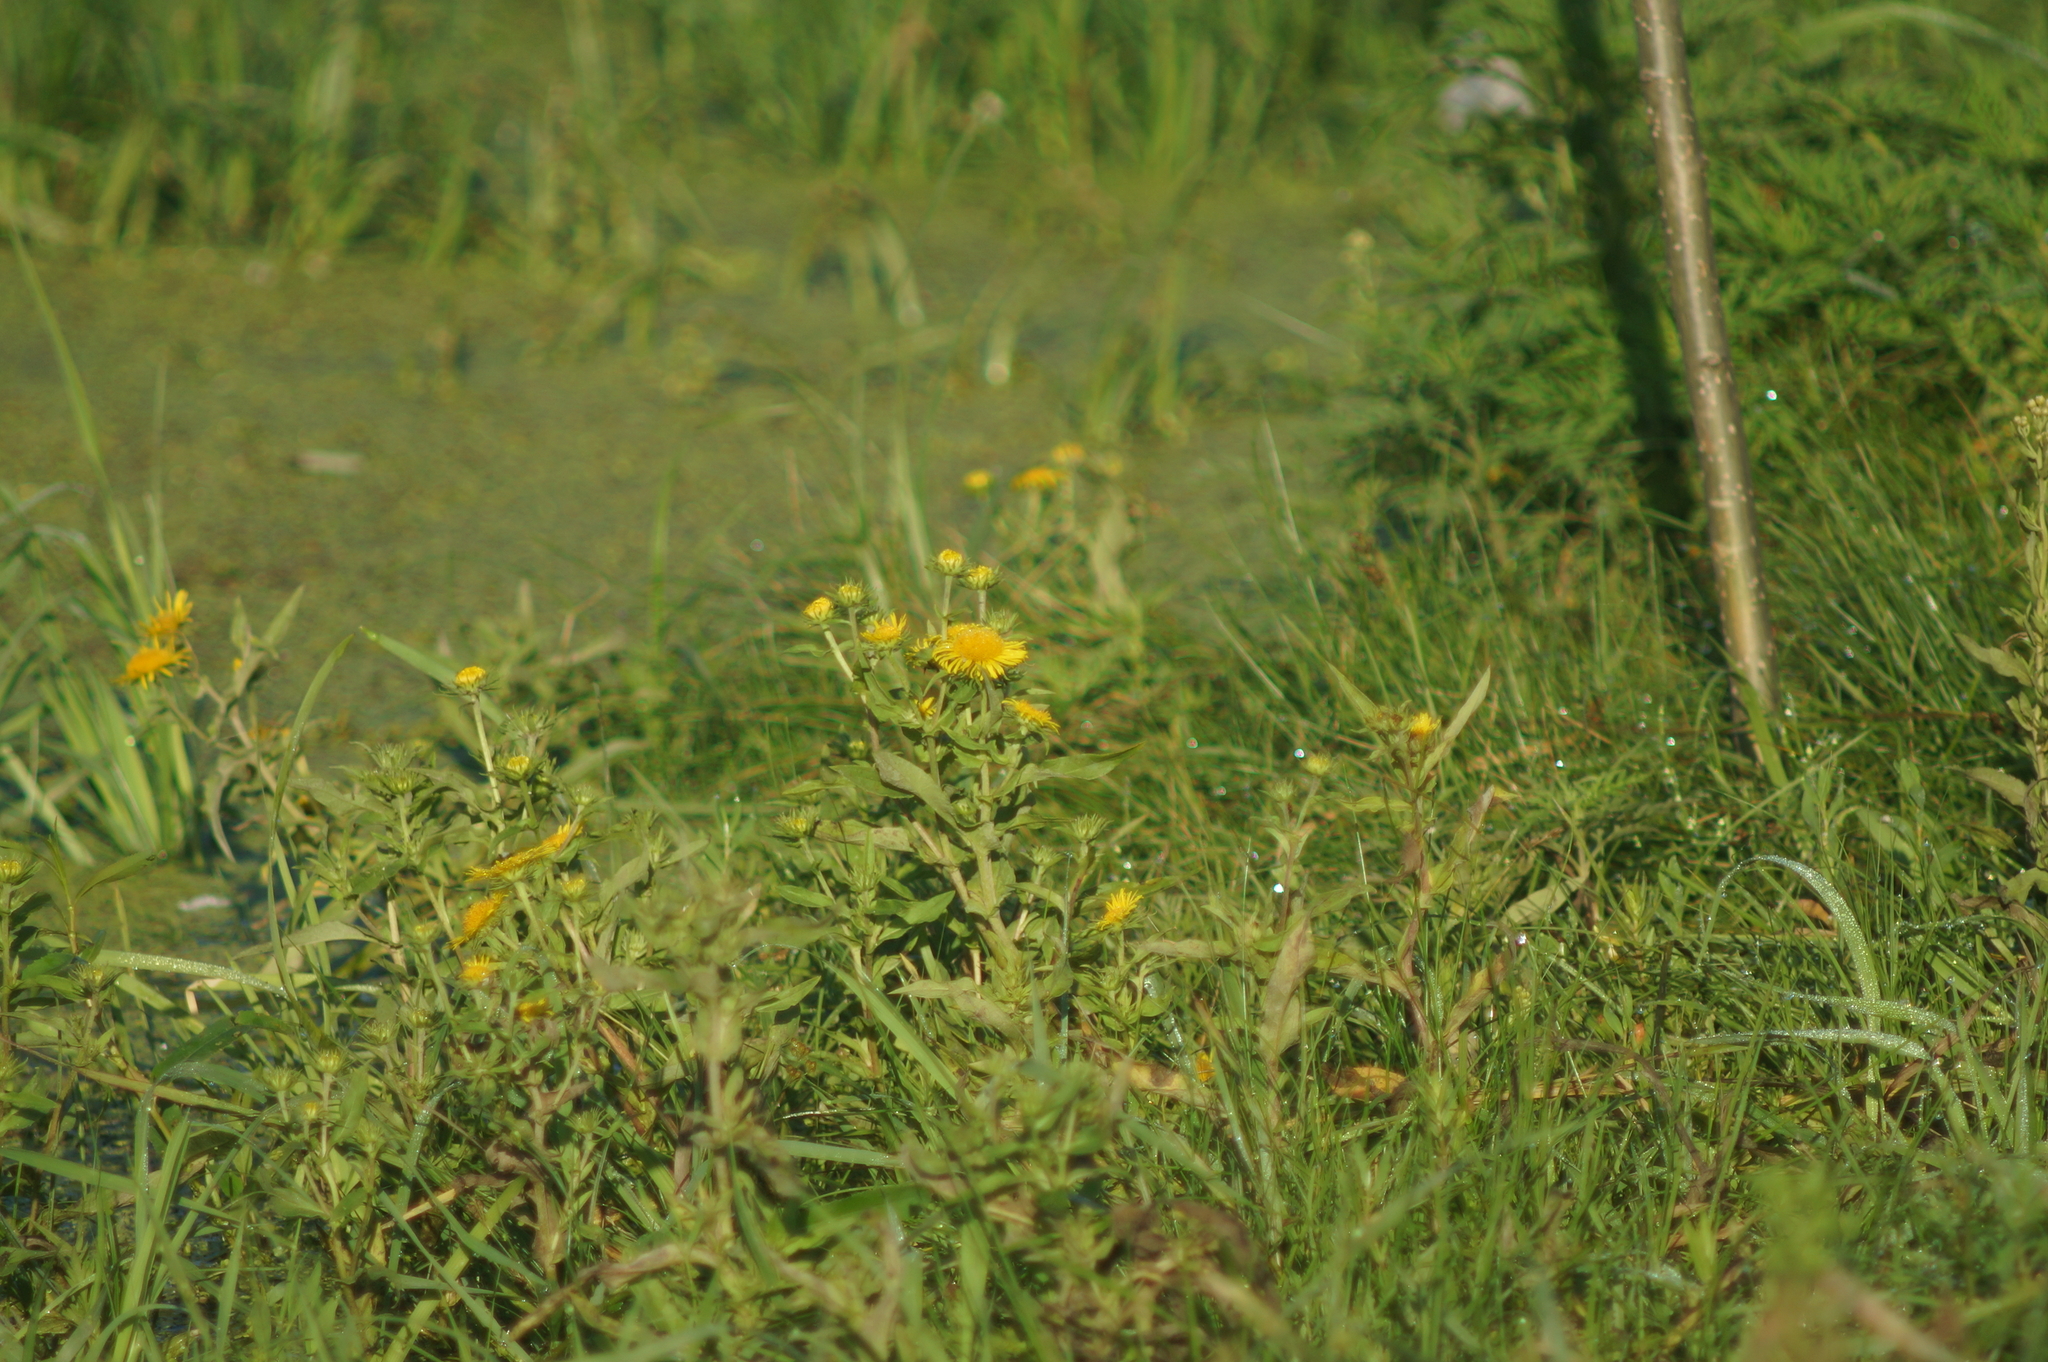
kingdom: Plantae
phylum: Tracheophyta
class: Magnoliopsida
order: Asterales
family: Asteraceae
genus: Pentanema
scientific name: Pentanema britannicum
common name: British elecampane
